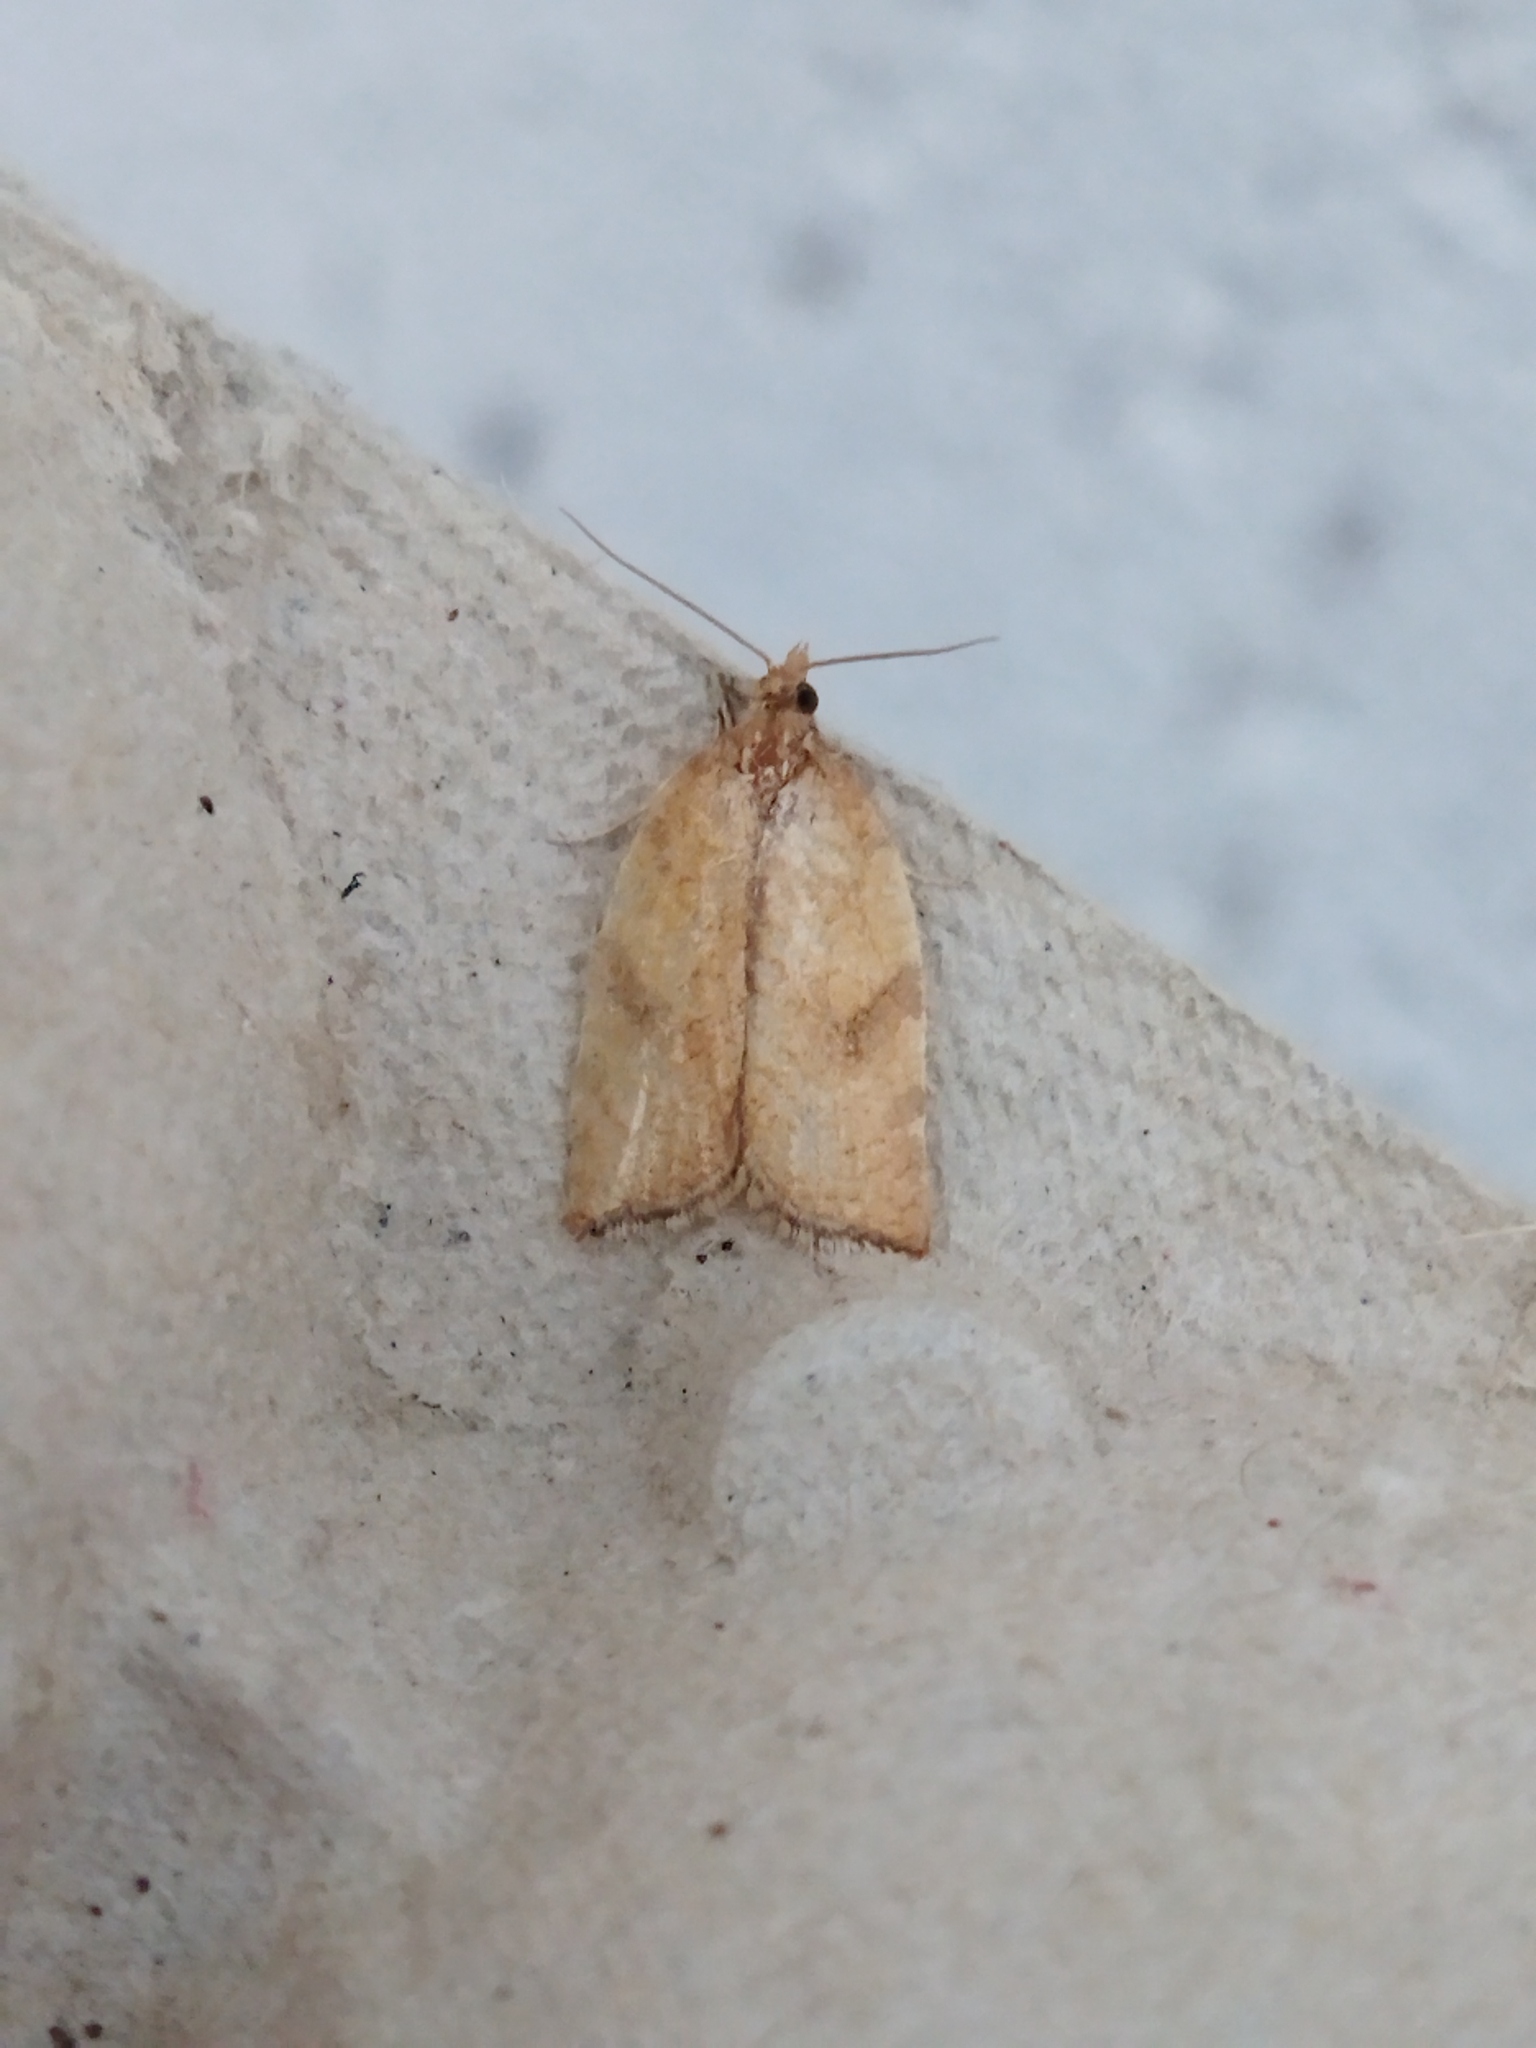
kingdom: Animalia
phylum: Arthropoda
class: Insecta
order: Lepidoptera
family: Tortricidae
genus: Acleris
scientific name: Acleris
